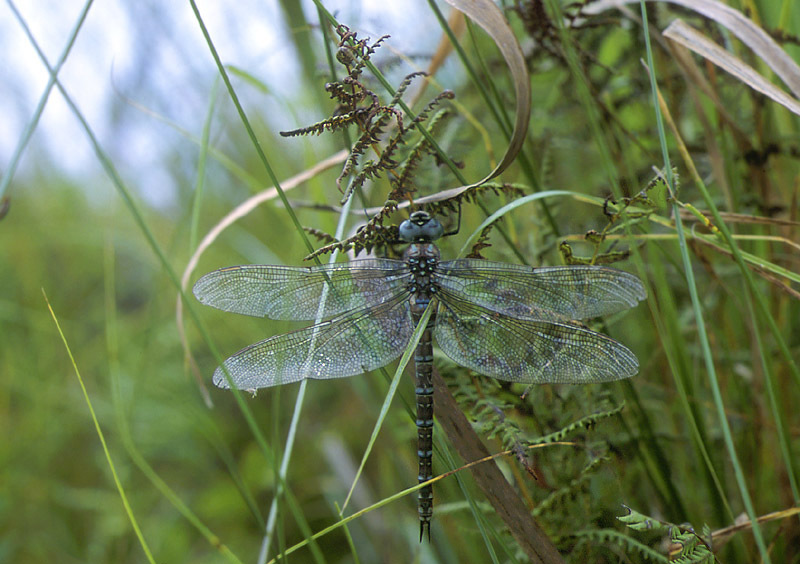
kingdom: Animalia
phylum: Arthropoda
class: Insecta
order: Odonata
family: Aeshnidae
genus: Aeshna
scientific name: Aeshna crenata
